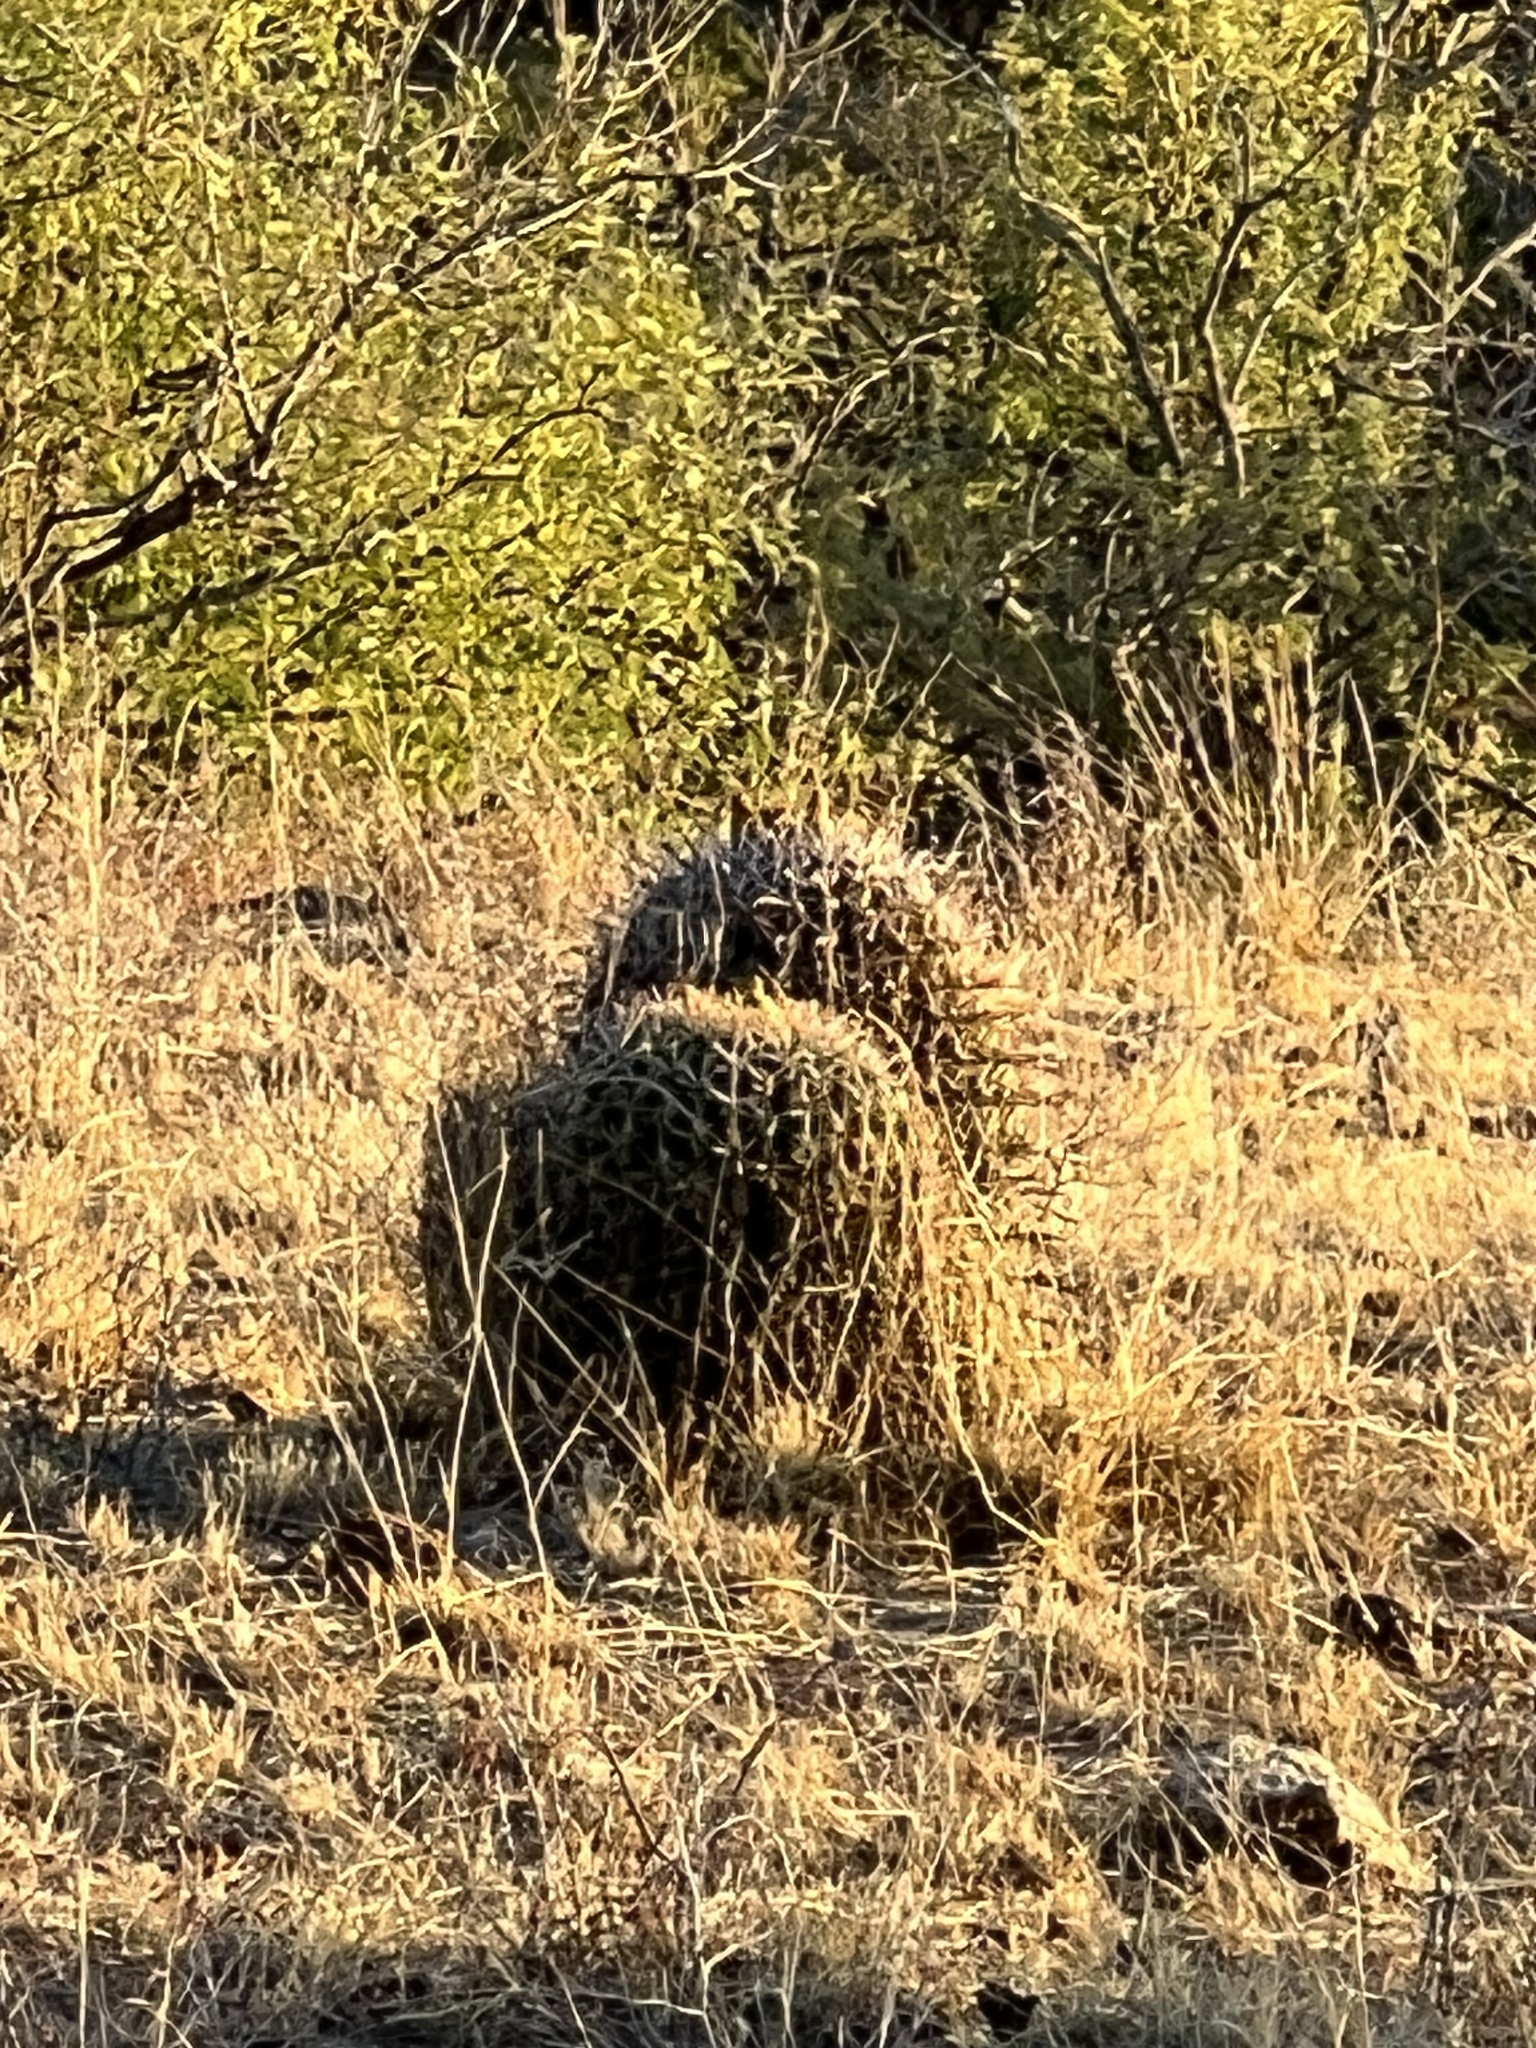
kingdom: Plantae
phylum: Tracheophyta
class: Magnoliopsida
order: Caryophyllales
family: Cactaceae
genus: Ferocactus
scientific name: Ferocactus wislizeni
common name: Candy barrel cactus
